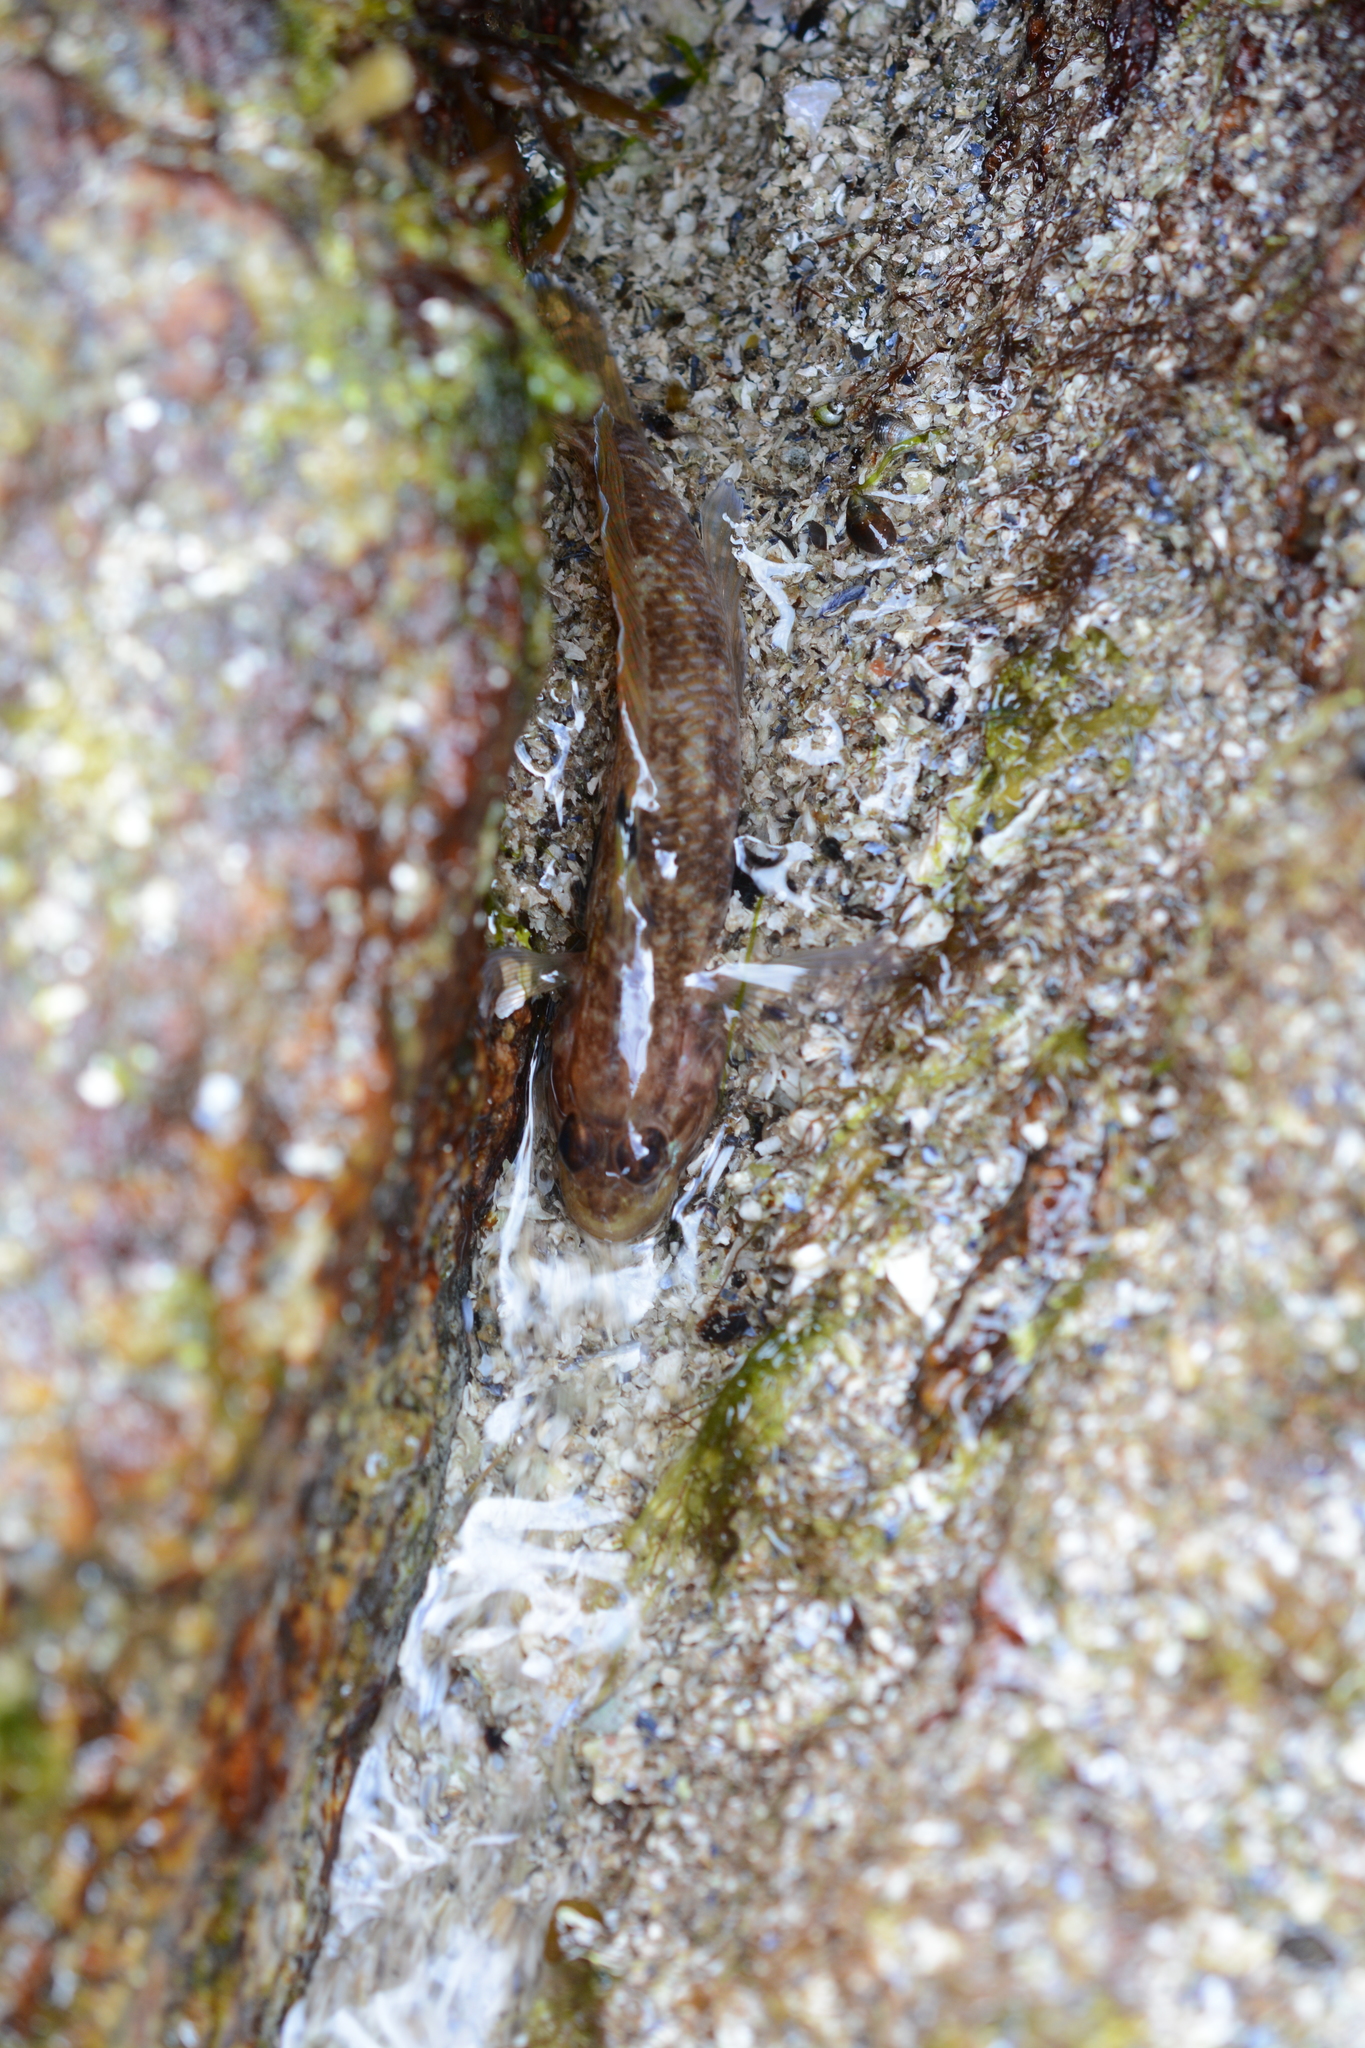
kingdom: Animalia
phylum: Chordata
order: Perciformes
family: Gobiidae
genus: Rhinogobiops
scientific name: Rhinogobiops nicholsii
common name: Blackeye goby
